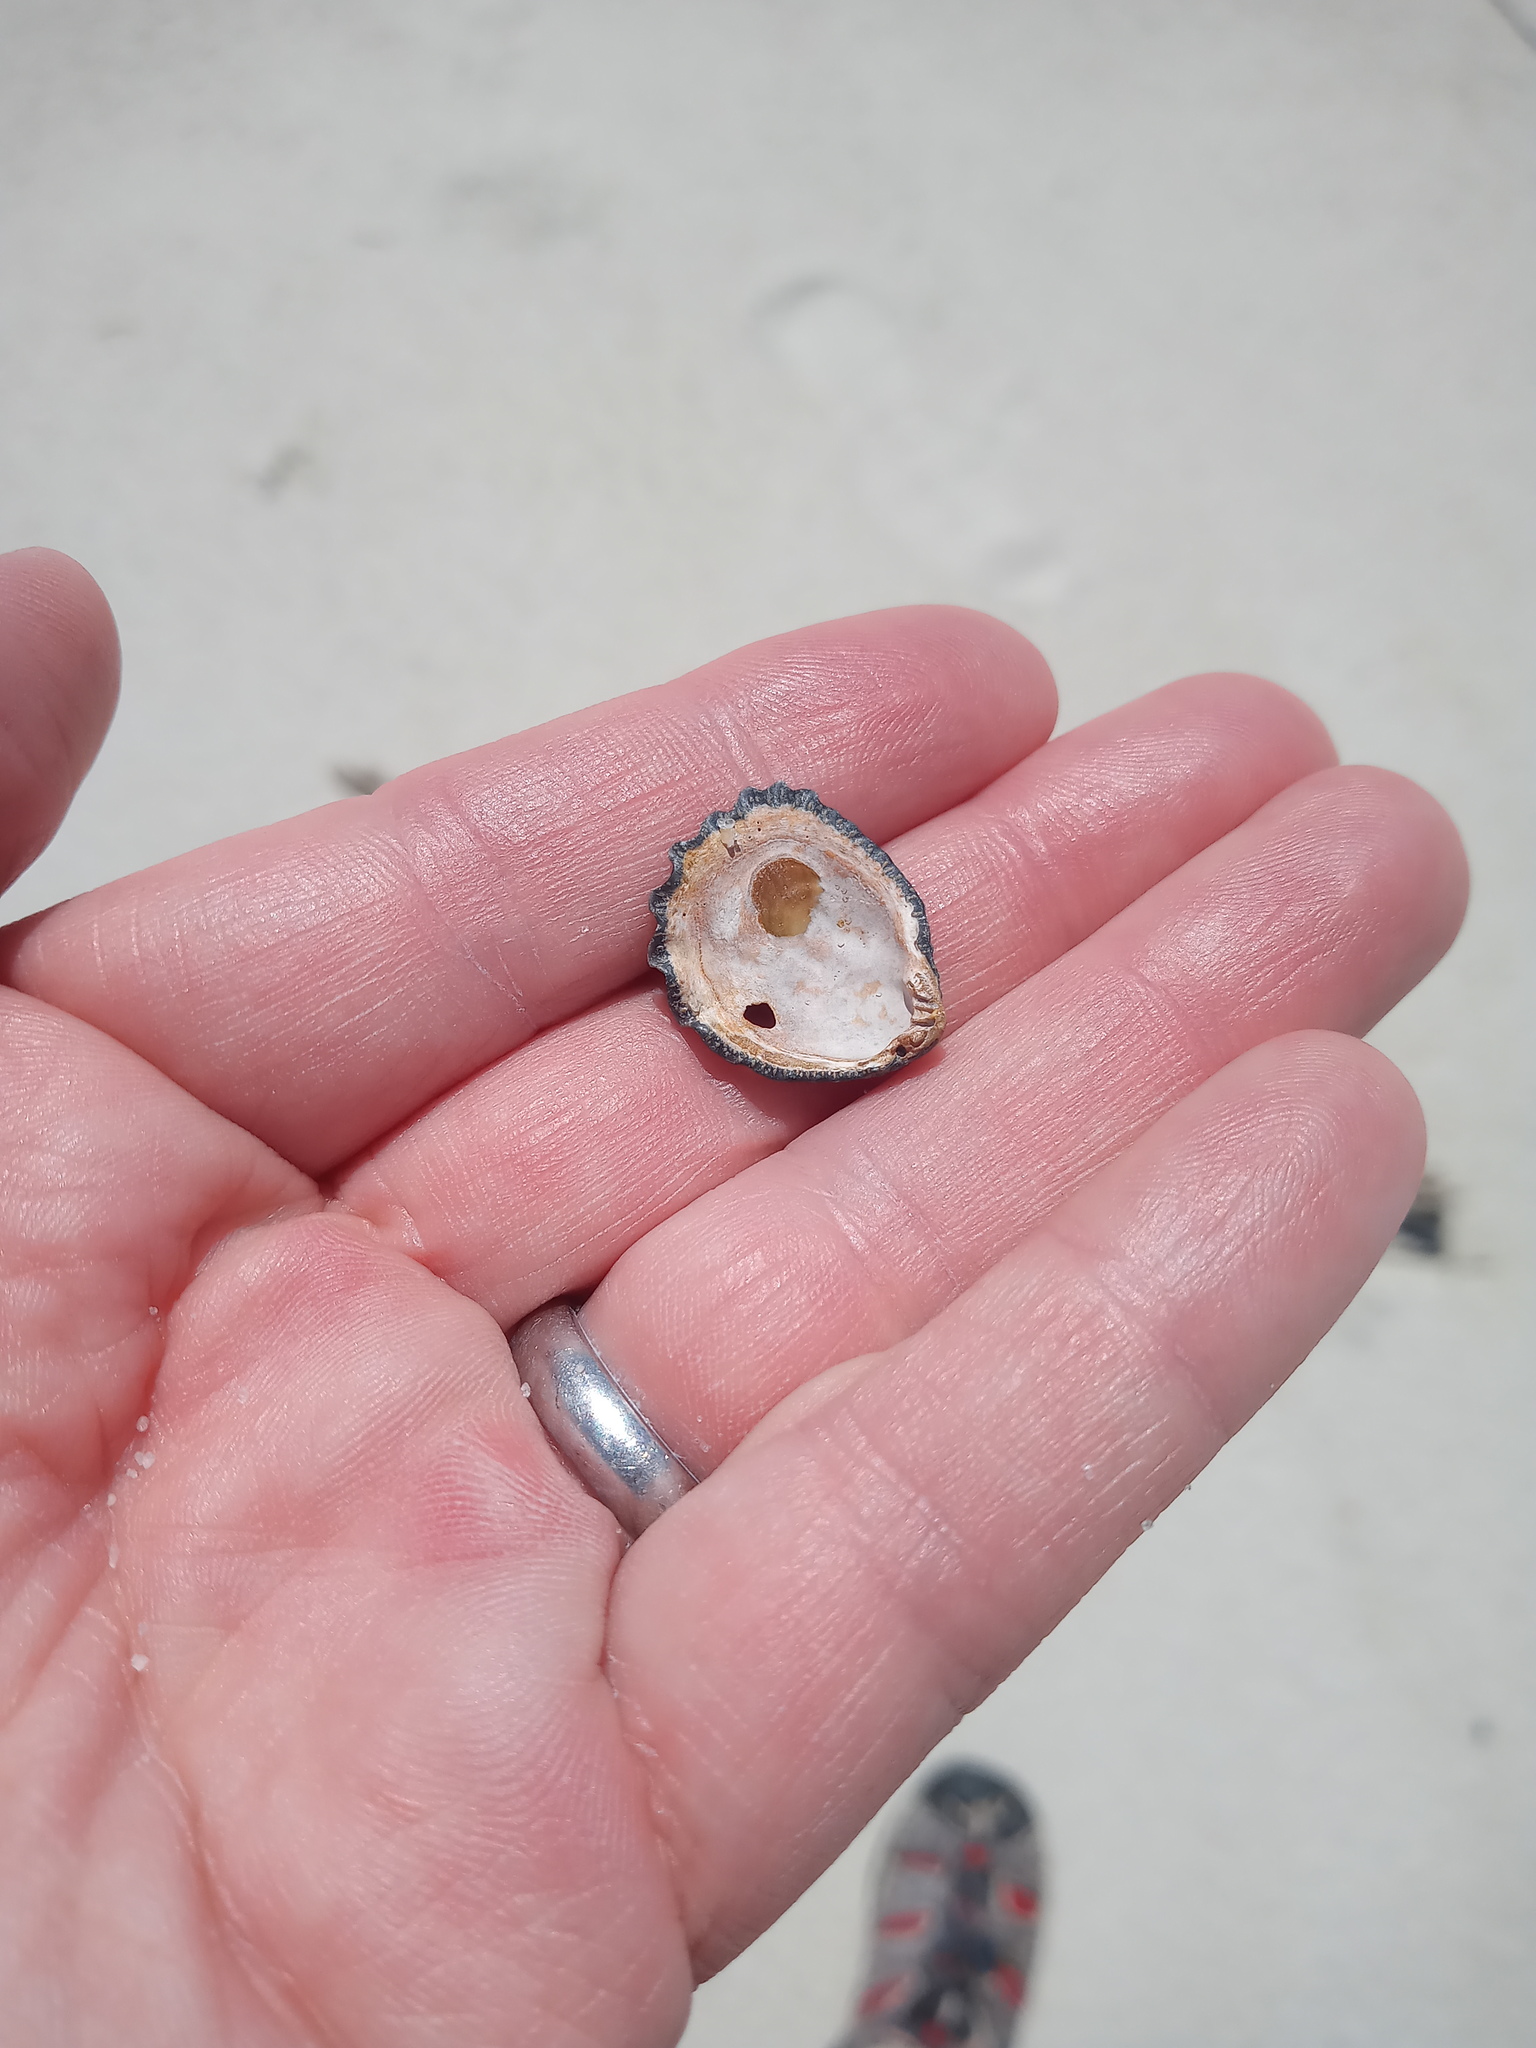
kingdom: Animalia
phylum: Mollusca
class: Bivalvia
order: Pectinida
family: Plicatulidae
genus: Plicatula
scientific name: Plicatula gibbosa
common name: Atlantic kitten's paw
